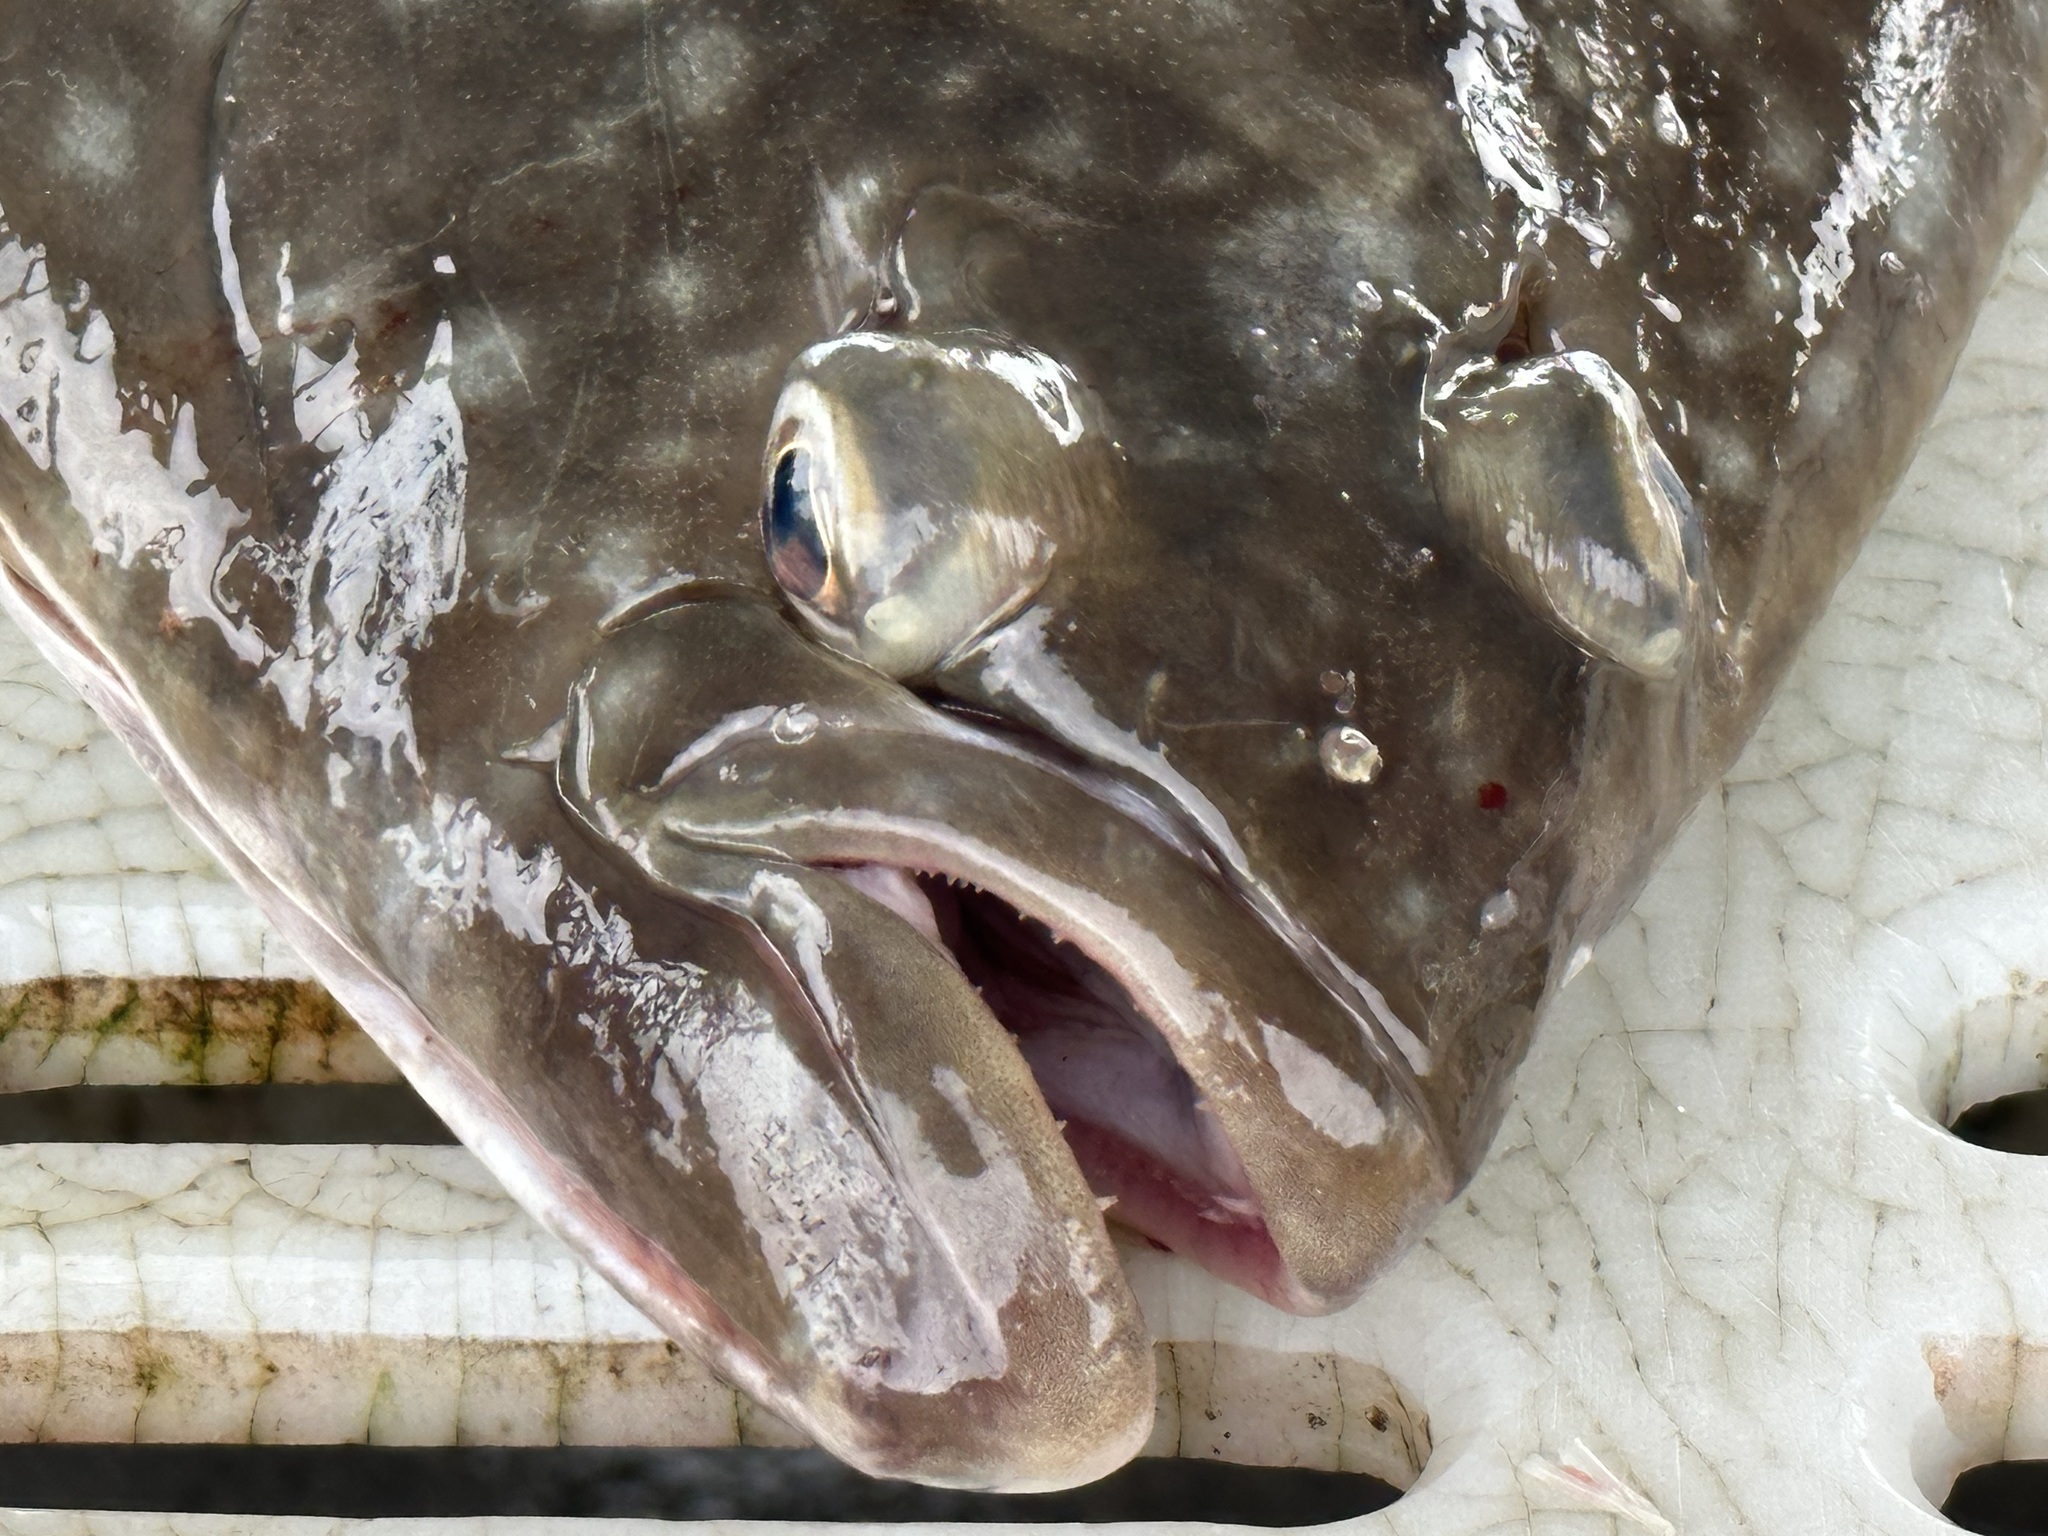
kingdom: Animalia
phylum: Chordata
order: Pleuronectiformes
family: Pleuronectidae
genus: Hippoglossus
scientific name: Hippoglossus stenolepis
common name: Pacific halibut
